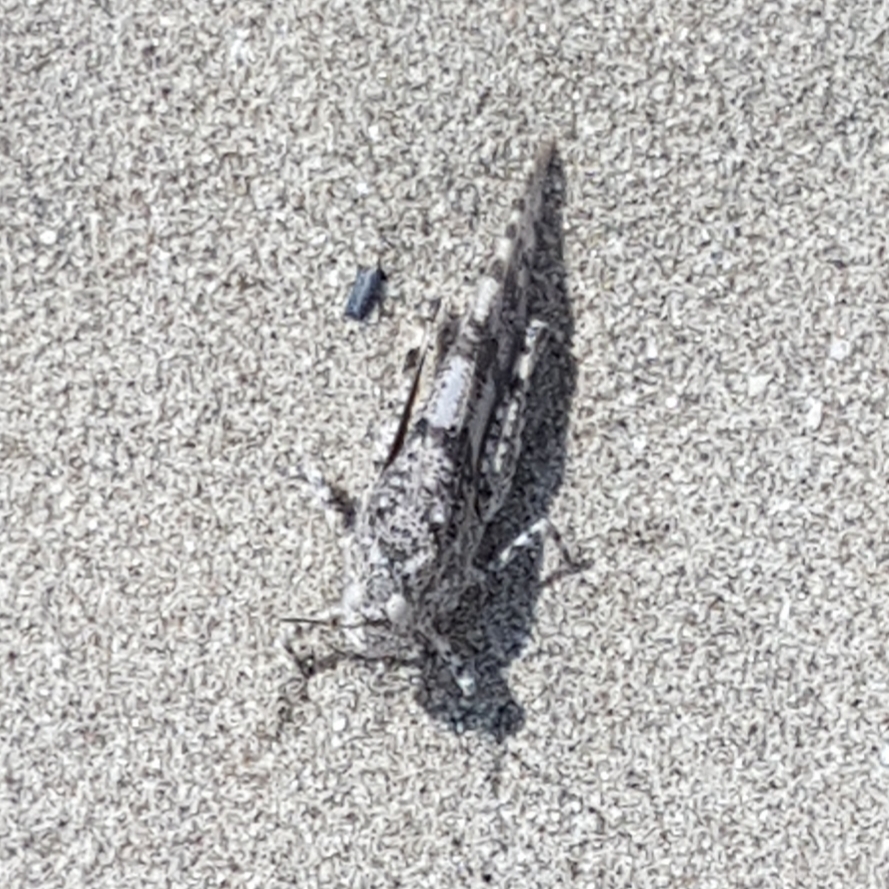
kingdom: Animalia
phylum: Arthropoda
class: Insecta
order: Orthoptera
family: Acrididae
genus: Sphingonotus
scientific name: Sphingonotus caerulans
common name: Blue-winged locust
